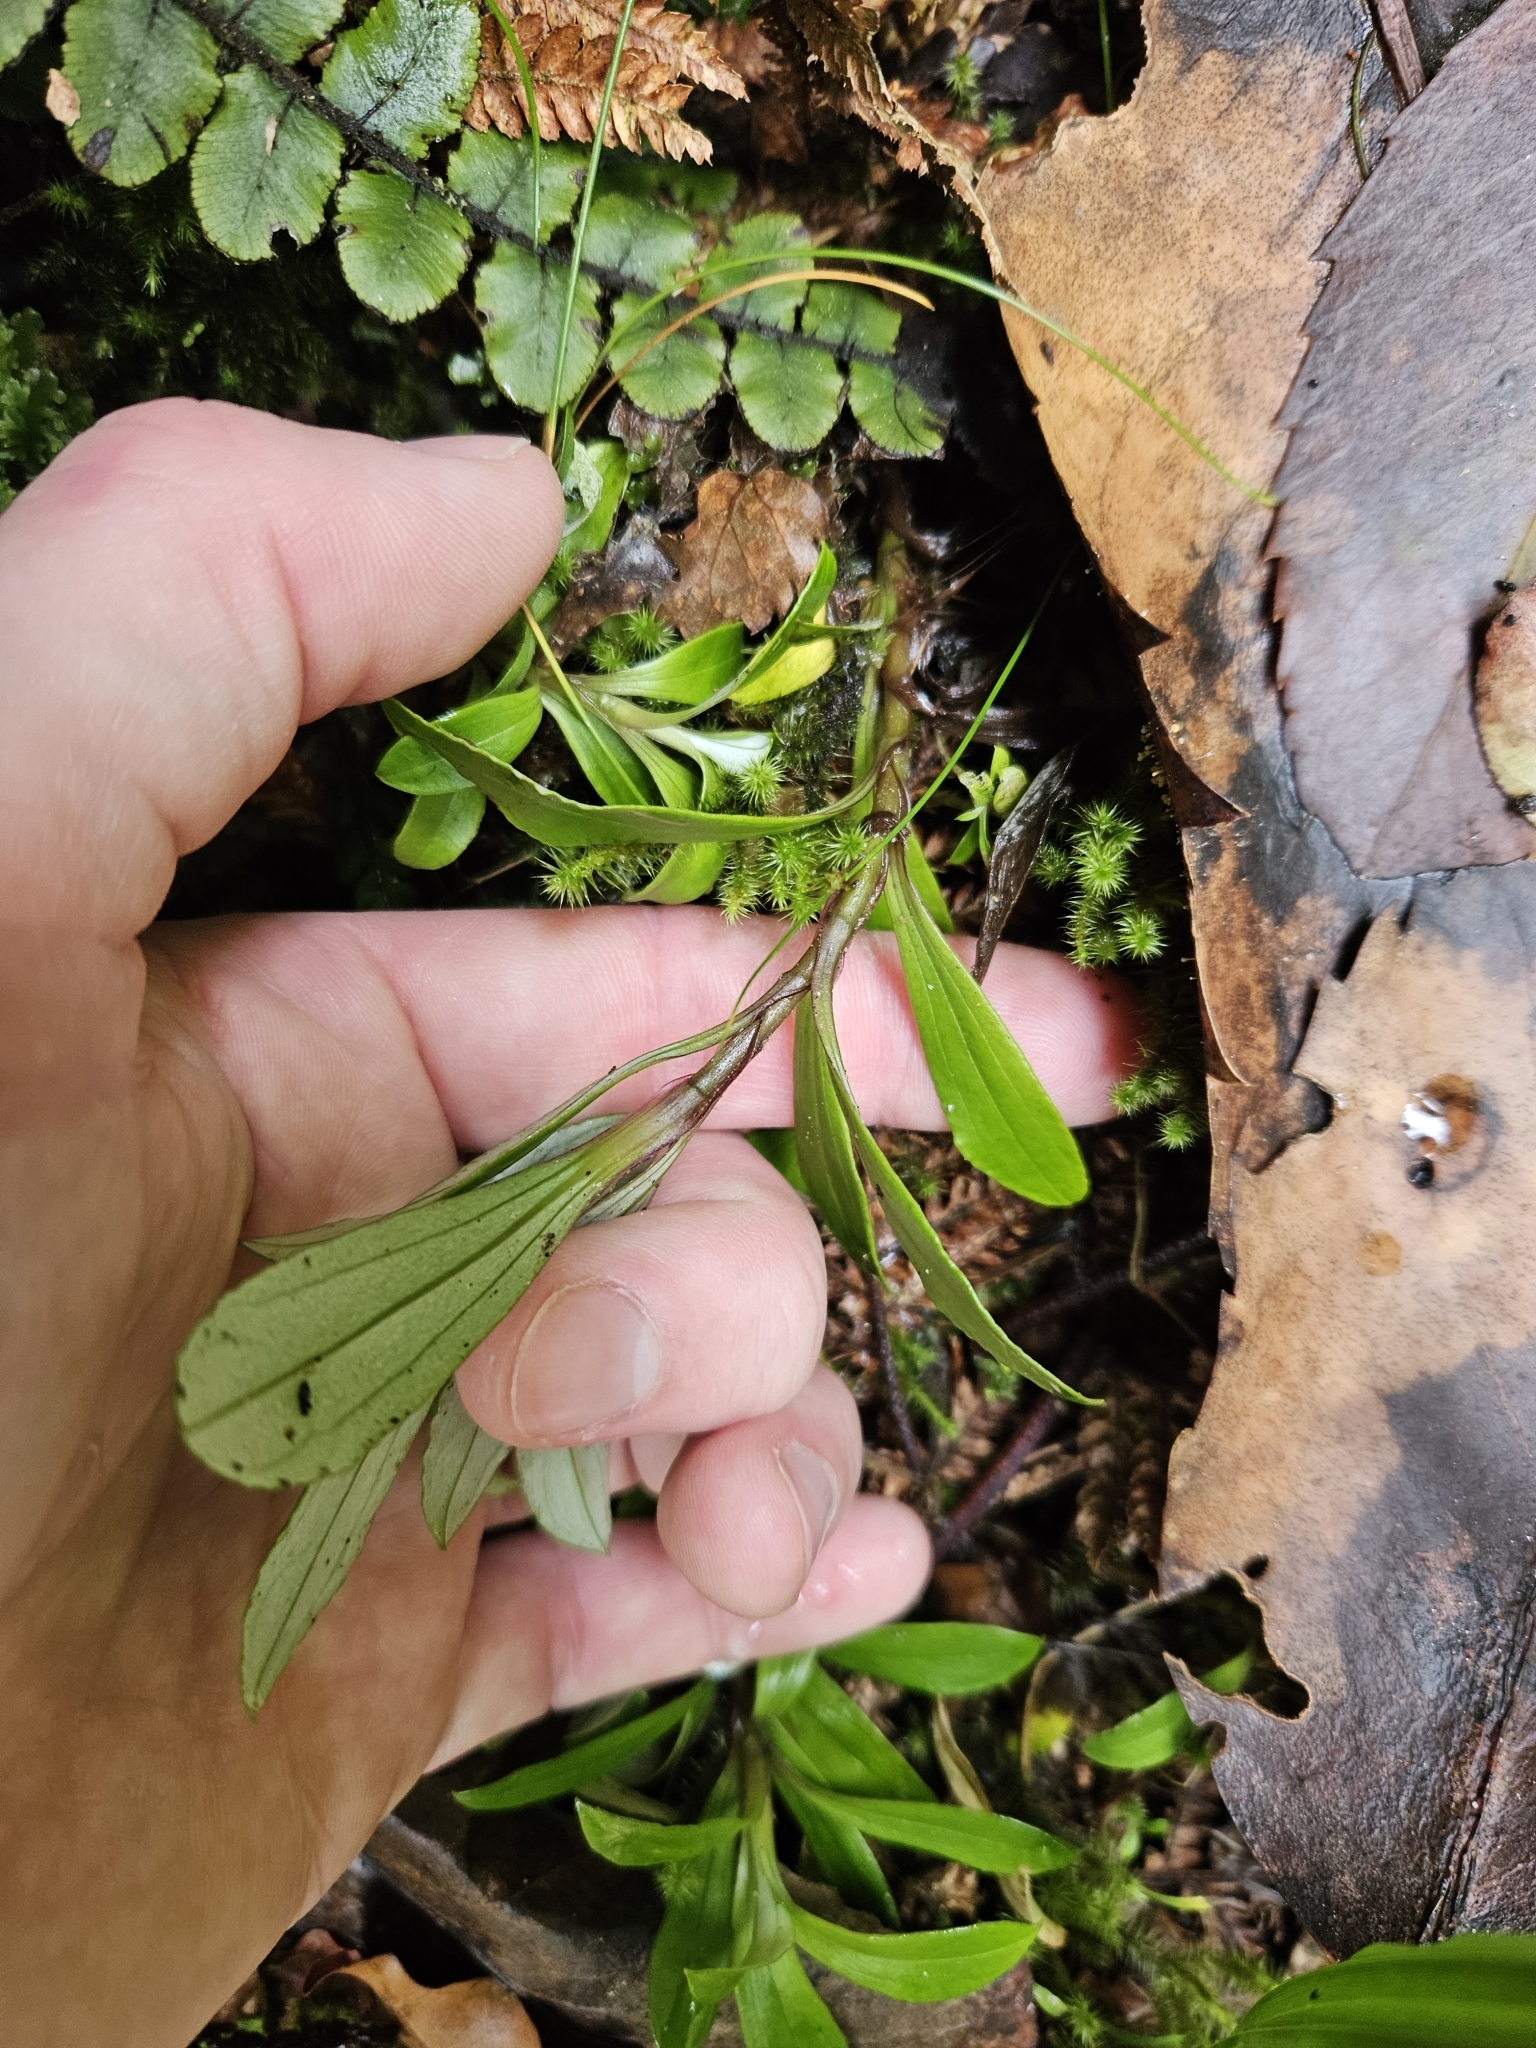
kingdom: Plantae
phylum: Tracheophyta
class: Magnoliopsida
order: Asterales
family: Asteraceae
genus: Anaphalioides
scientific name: Anaphalioides trinervis
